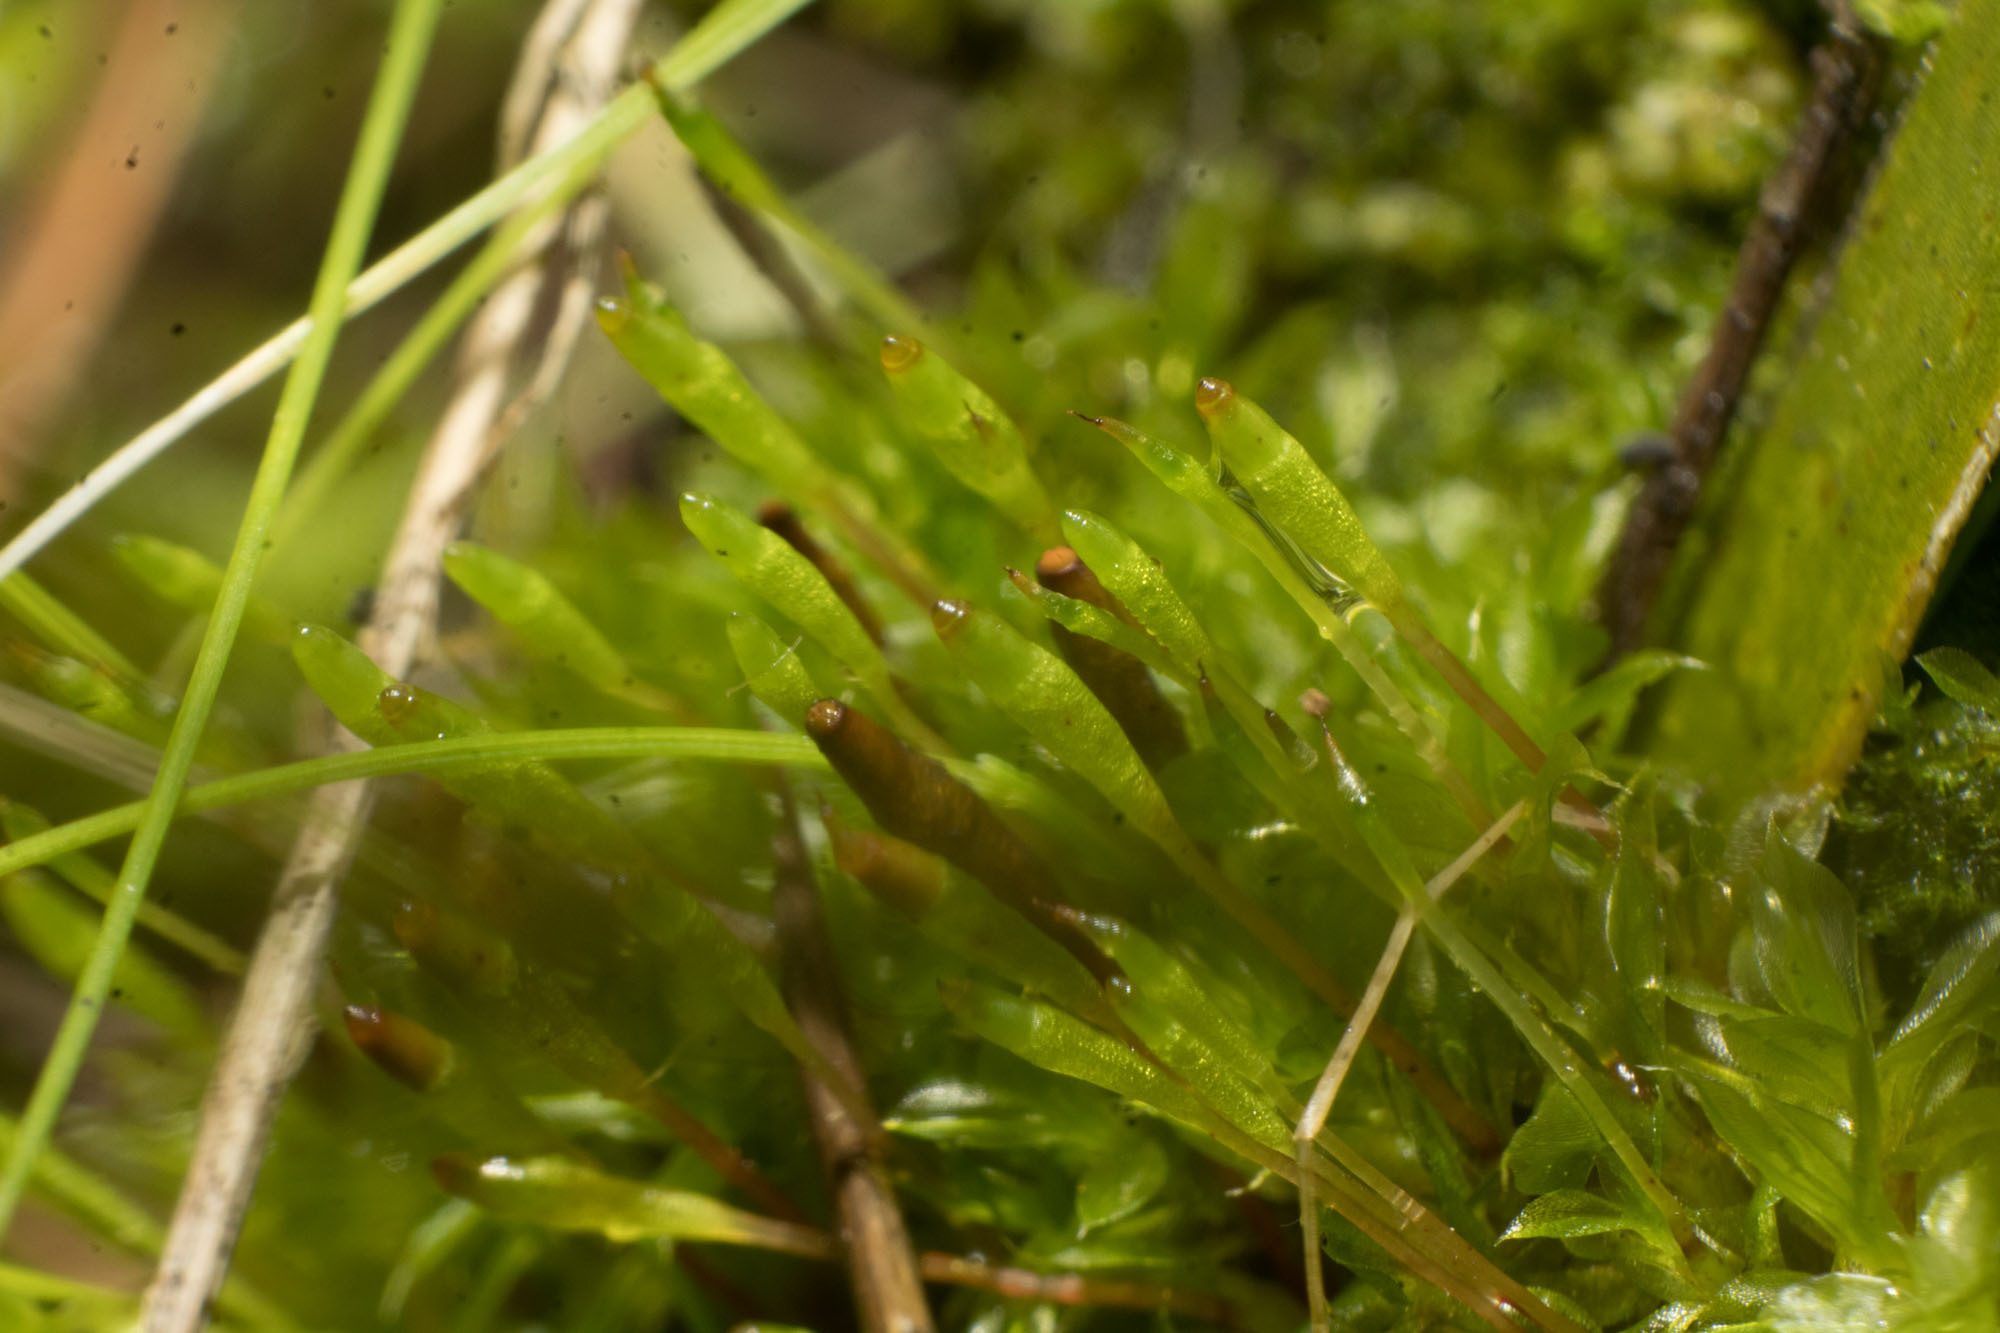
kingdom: Plantae
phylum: Bryophyta
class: Bryopsida
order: Splachnales
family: Splachnaceae
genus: Tayloria
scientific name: Tayloria octoblephara
